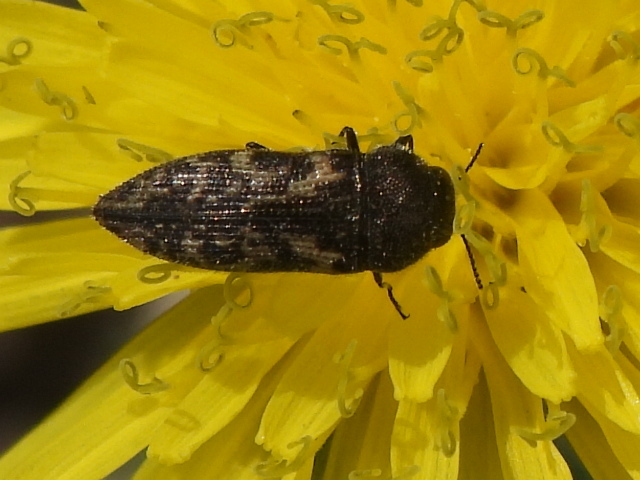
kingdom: Animalia
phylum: Arthropoda
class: Insecta
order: Coleoptera
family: Buprestidae
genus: Acmaeodera
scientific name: Acmaeodera neglecta
